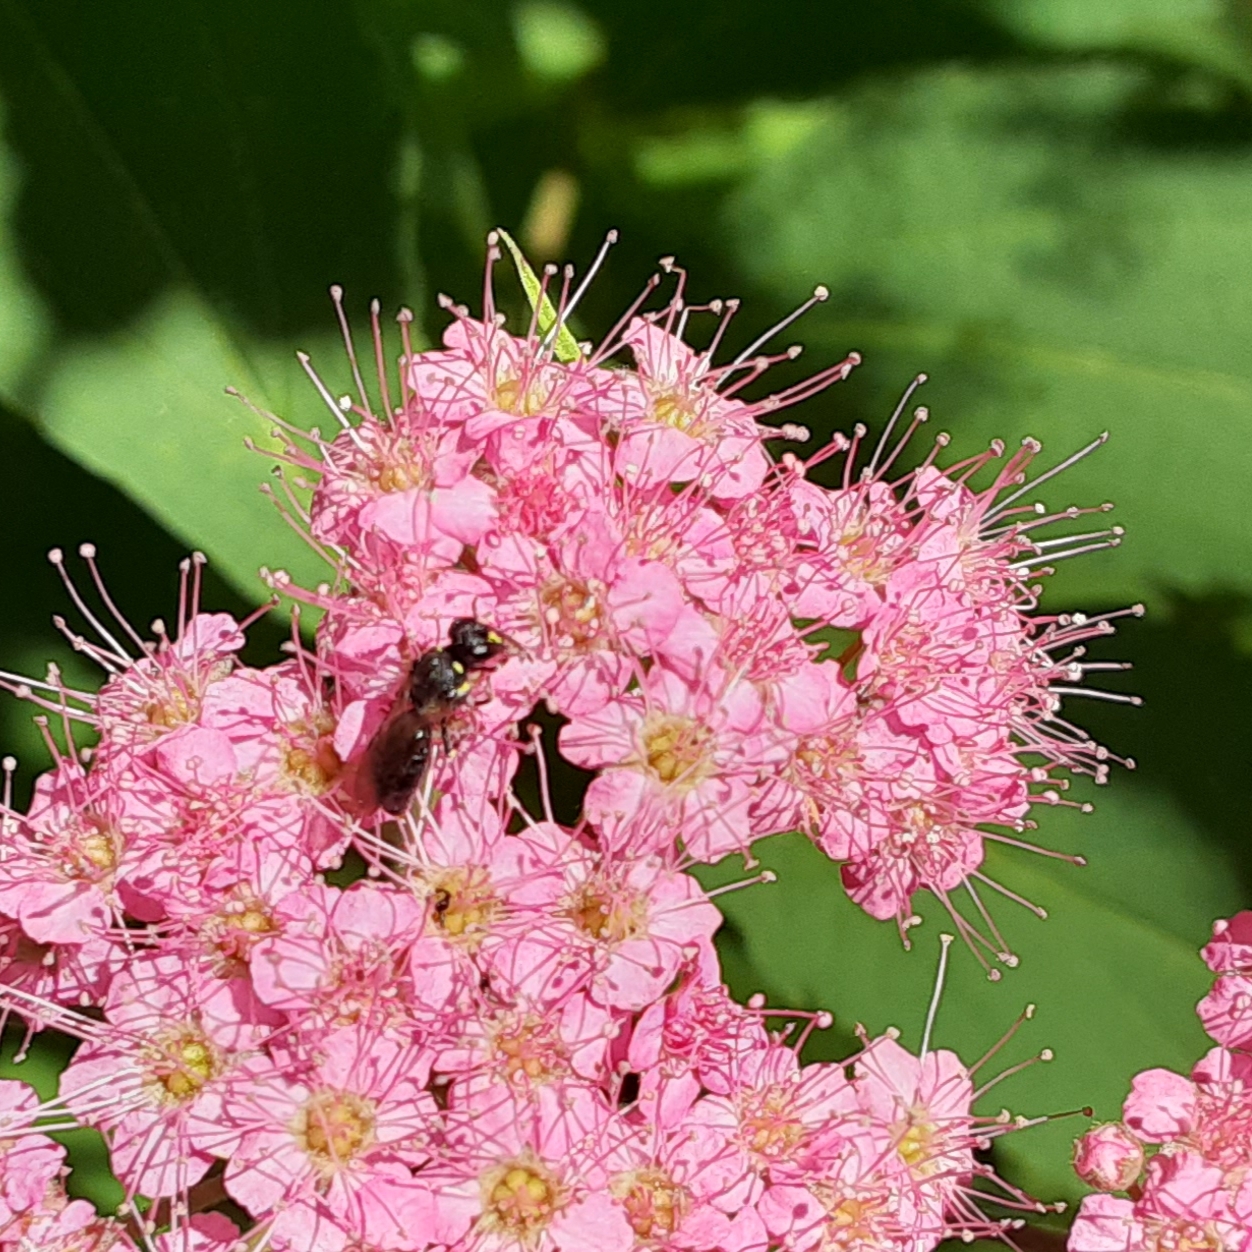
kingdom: Plantae
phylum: Tracheophyta
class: Magnoliopsida
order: Rosales
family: Rosaceae
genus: Spiraea
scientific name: Spiraea japonica
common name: Japanese spiraea
